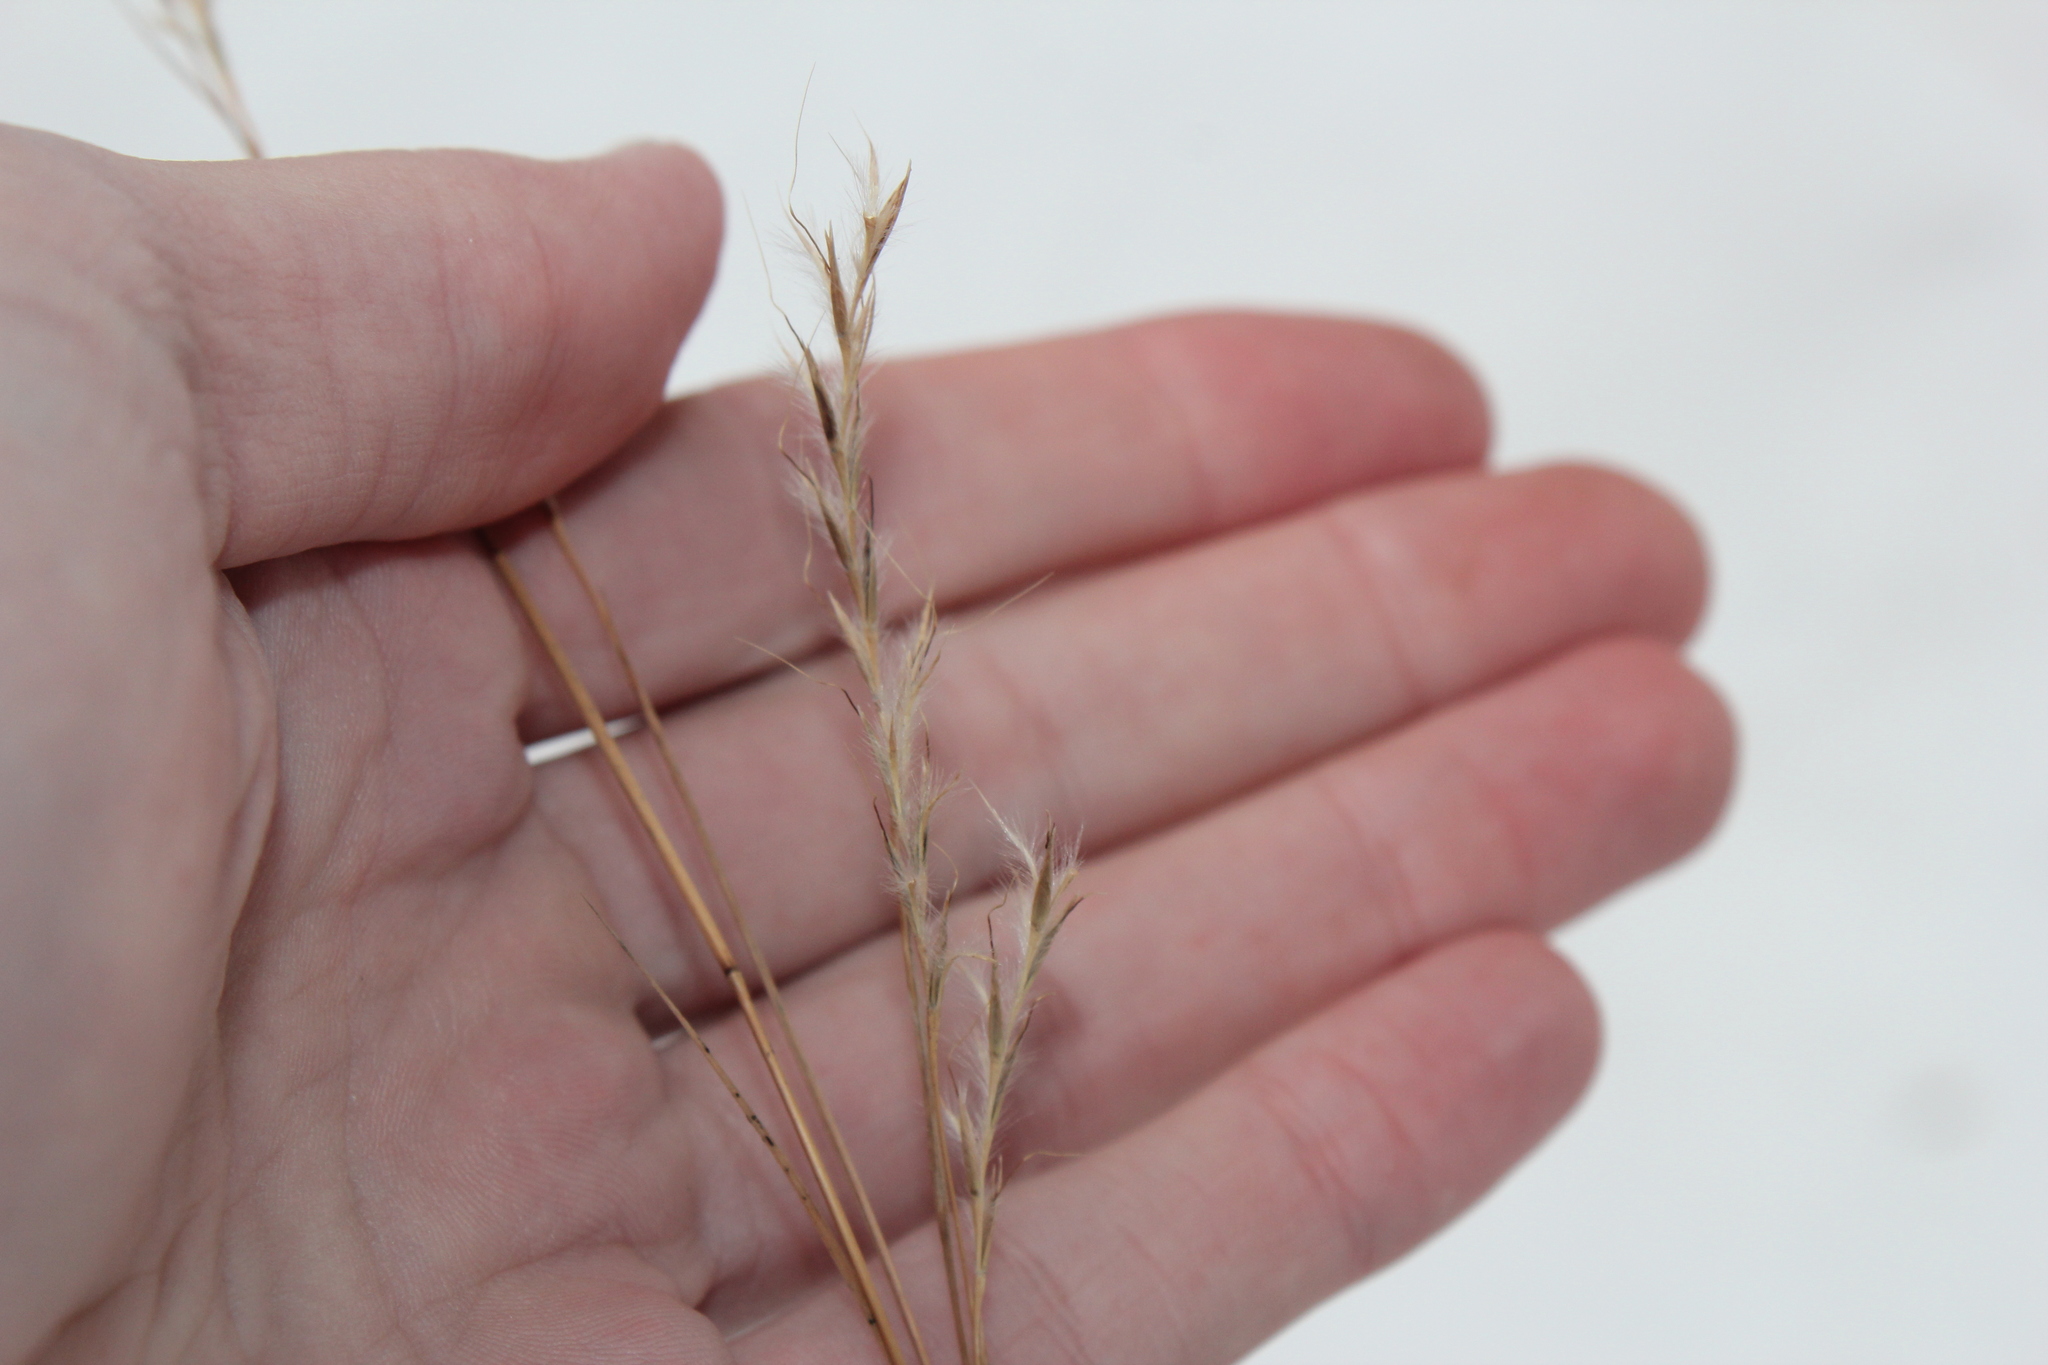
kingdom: Plantae
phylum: Tracheophyta
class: Liliopsida
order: Poales
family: Poaceae
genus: Schizachyrium
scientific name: Schizachyrium scoparium
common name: Little bluestem
